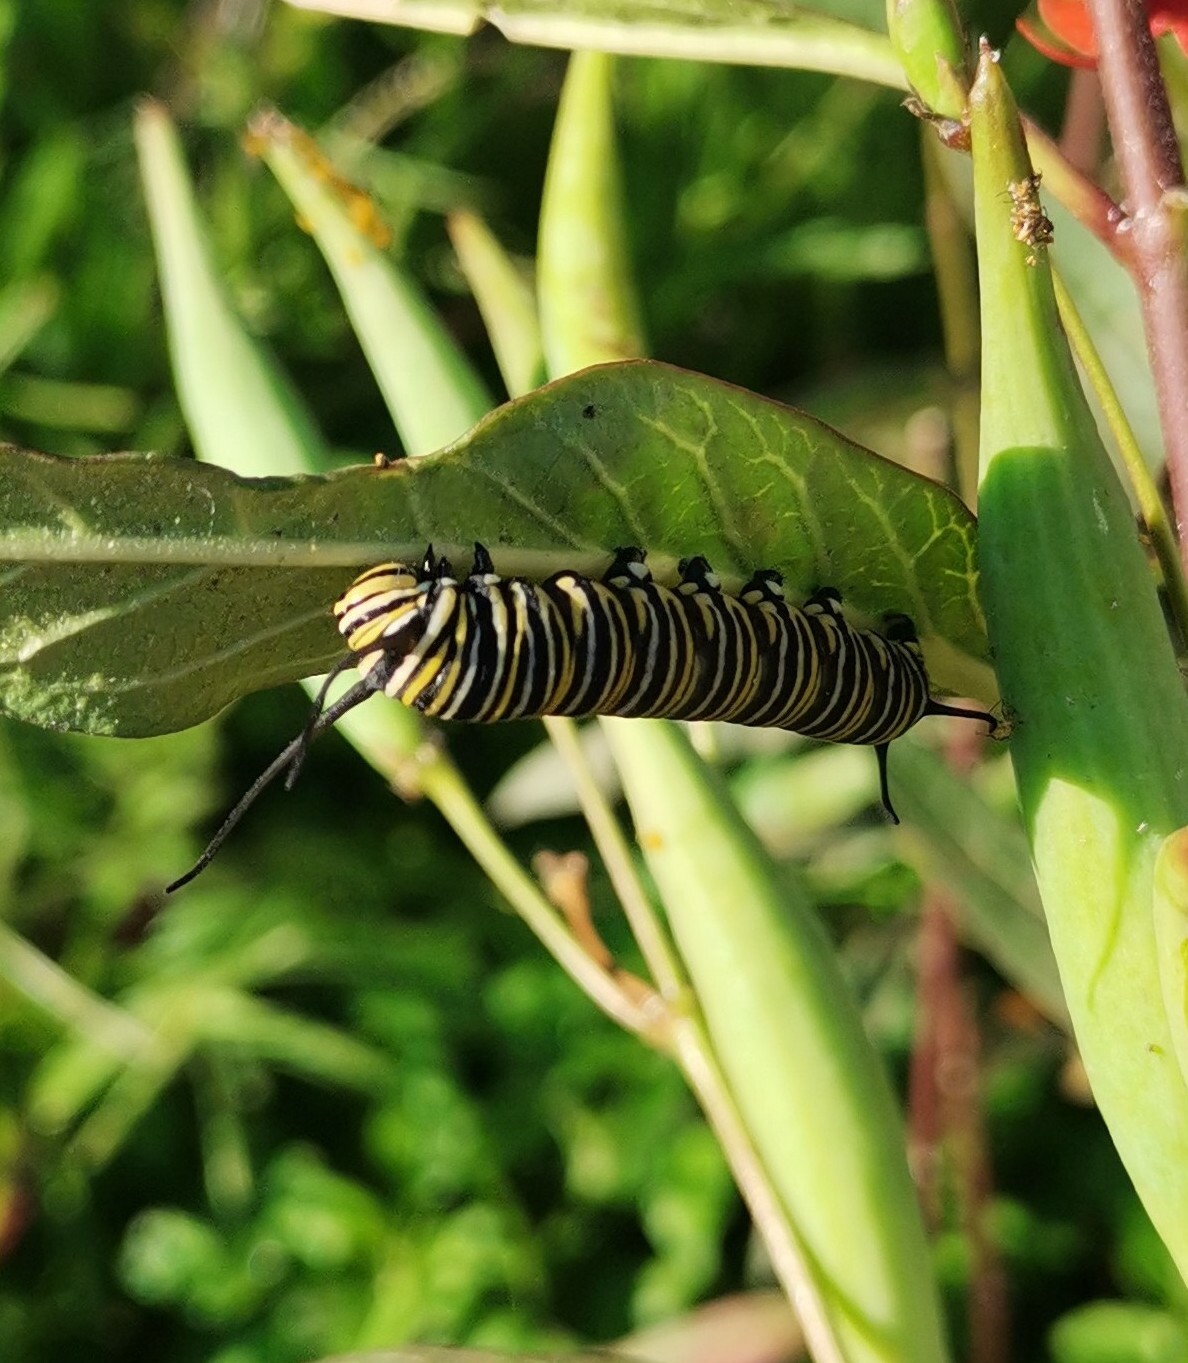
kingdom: Animalia
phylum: Arthropoda
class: Insecta
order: Lepidoptera
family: Nymphalidae
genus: Danaus
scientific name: Danaus plexippus
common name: Monarch
